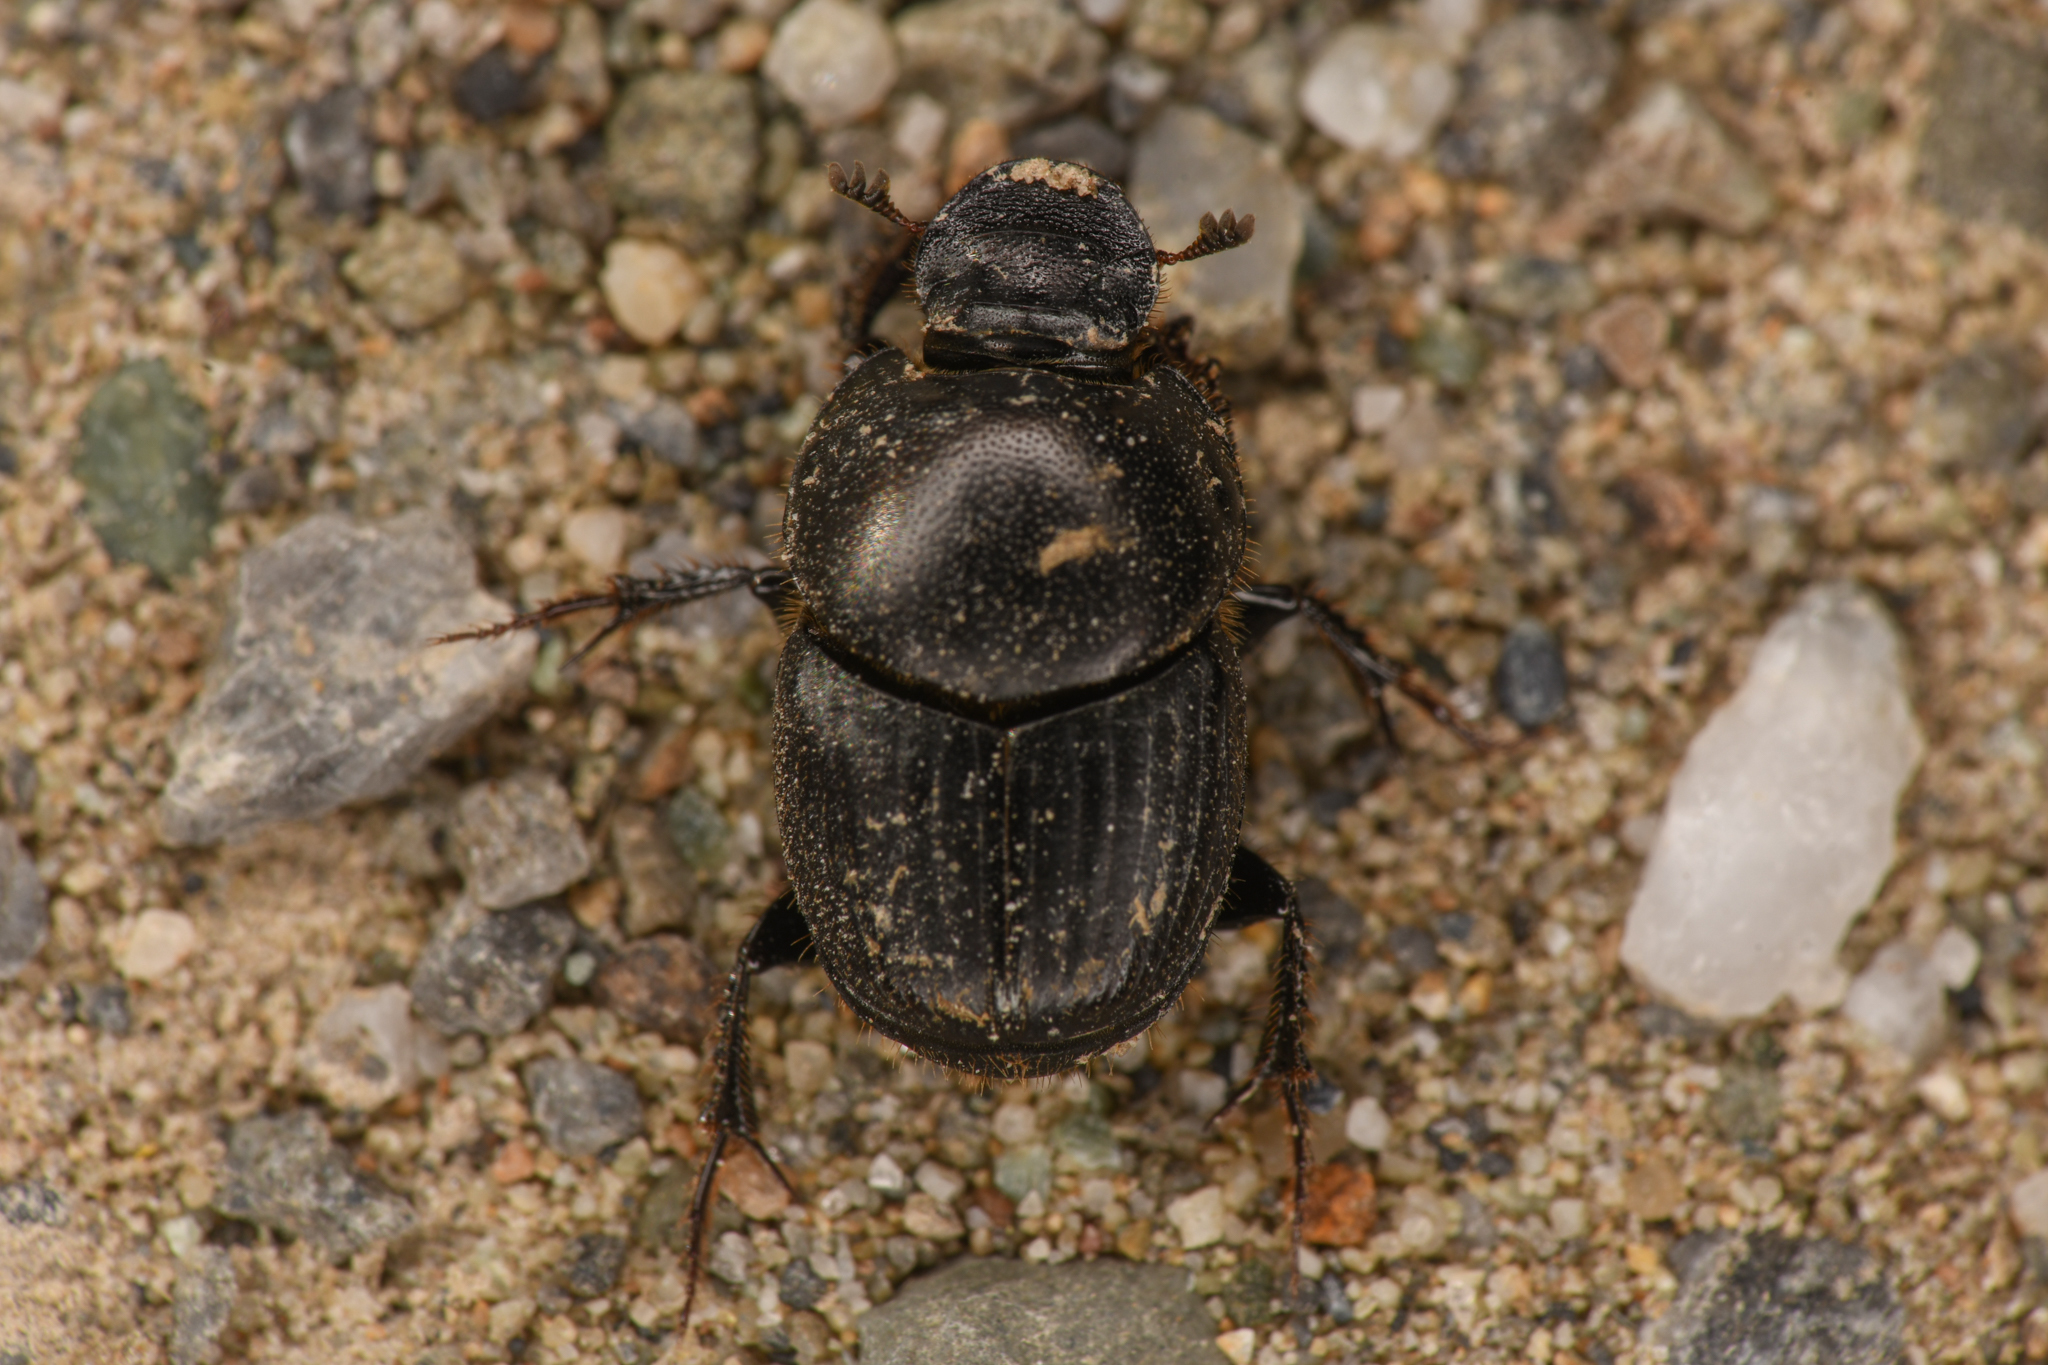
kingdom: Animalia
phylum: Arthropoda
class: Insecta
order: Coleoptera
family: Scarabaeidae
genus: Onthophagus
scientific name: Onthophagus taurus
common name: Bullhorned dung beetle
